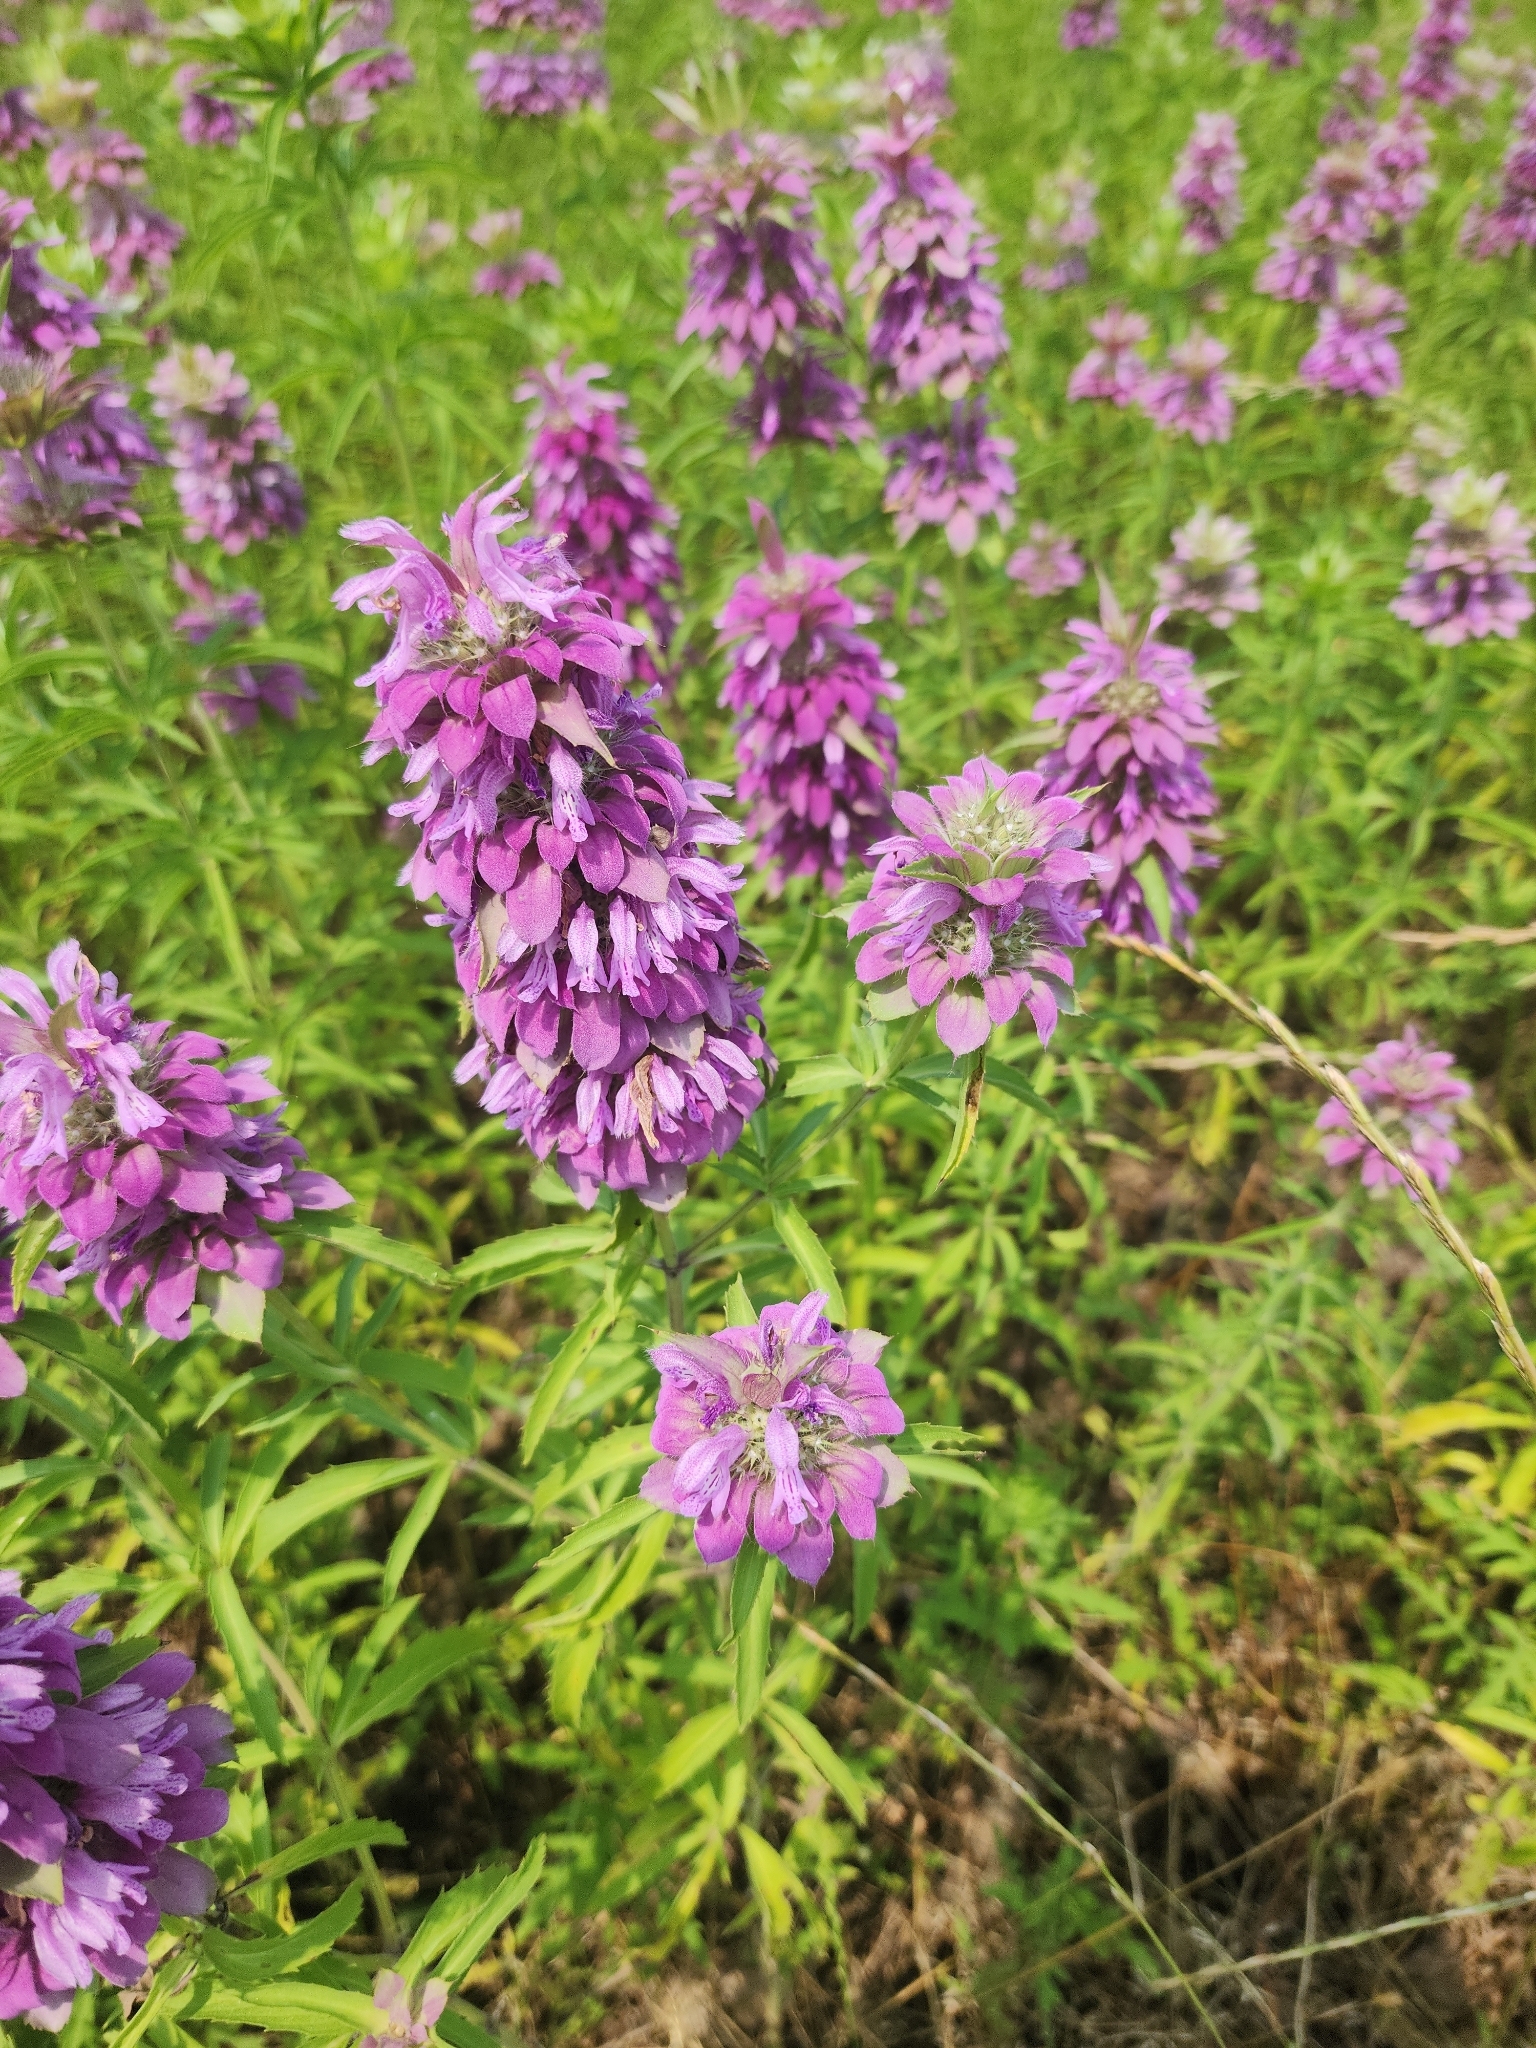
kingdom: Plantae
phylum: Tracheophyta
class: Magnoliopsida
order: Lamiales
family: Lamiaceae
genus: Monarda
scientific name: Monarda citriodora
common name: Lemon beebalm
